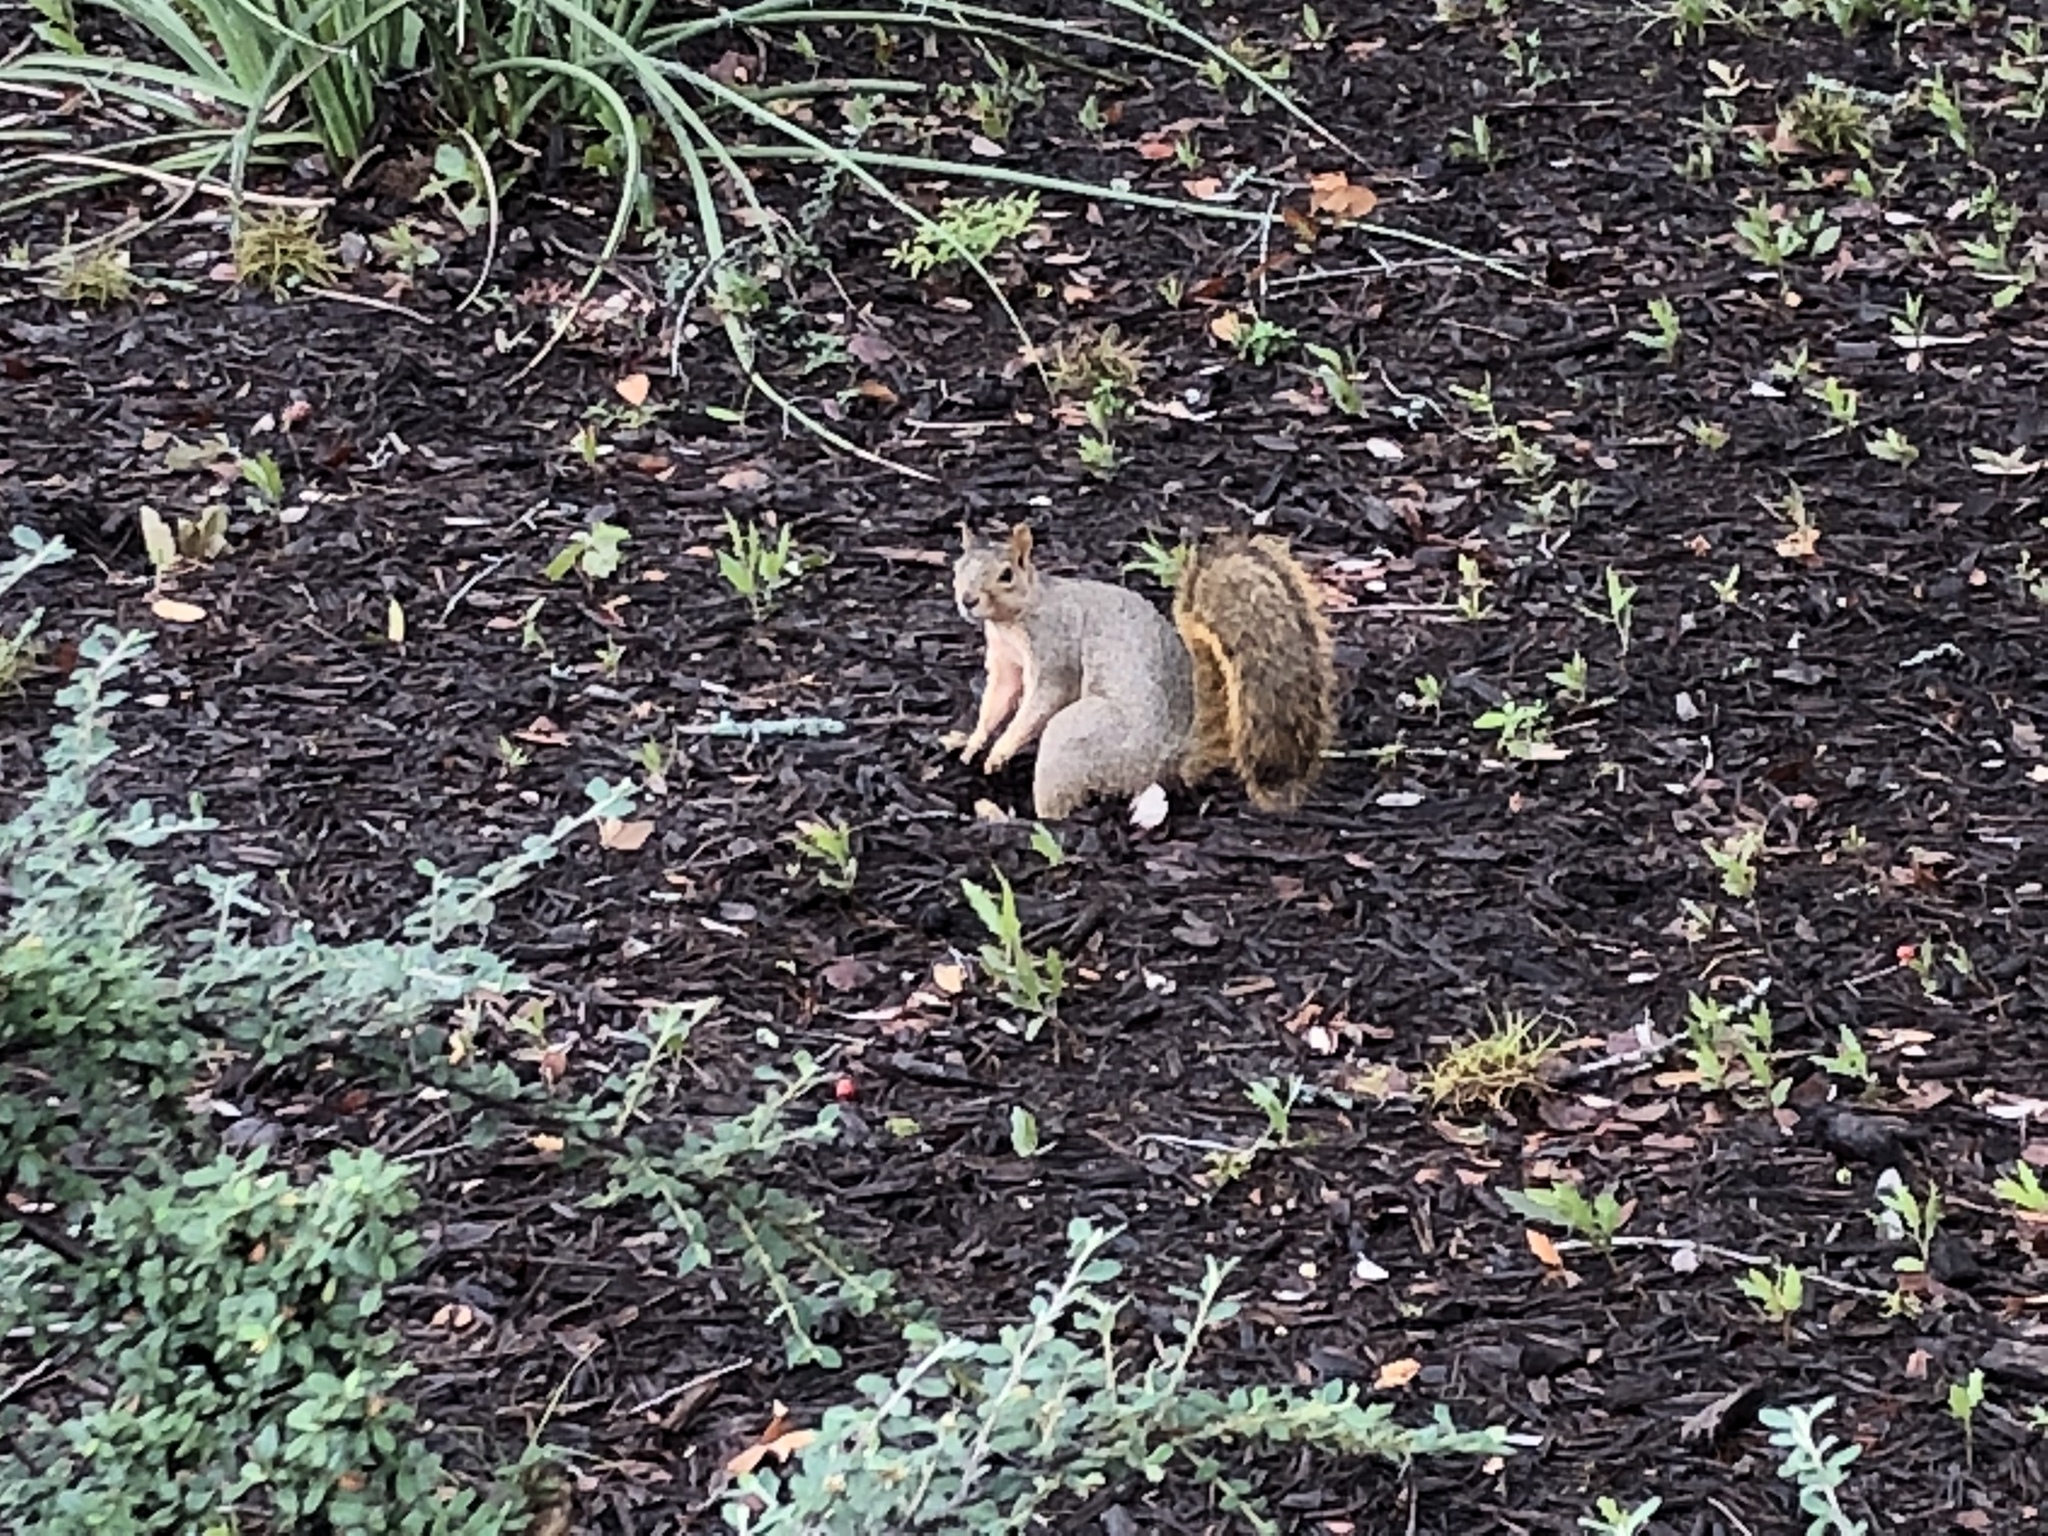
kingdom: Animalia
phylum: Chordata
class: Mammalia
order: Rodentia
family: Sciuridae
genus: Sciurus
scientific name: Sciurus niger
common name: Fox squirrel
